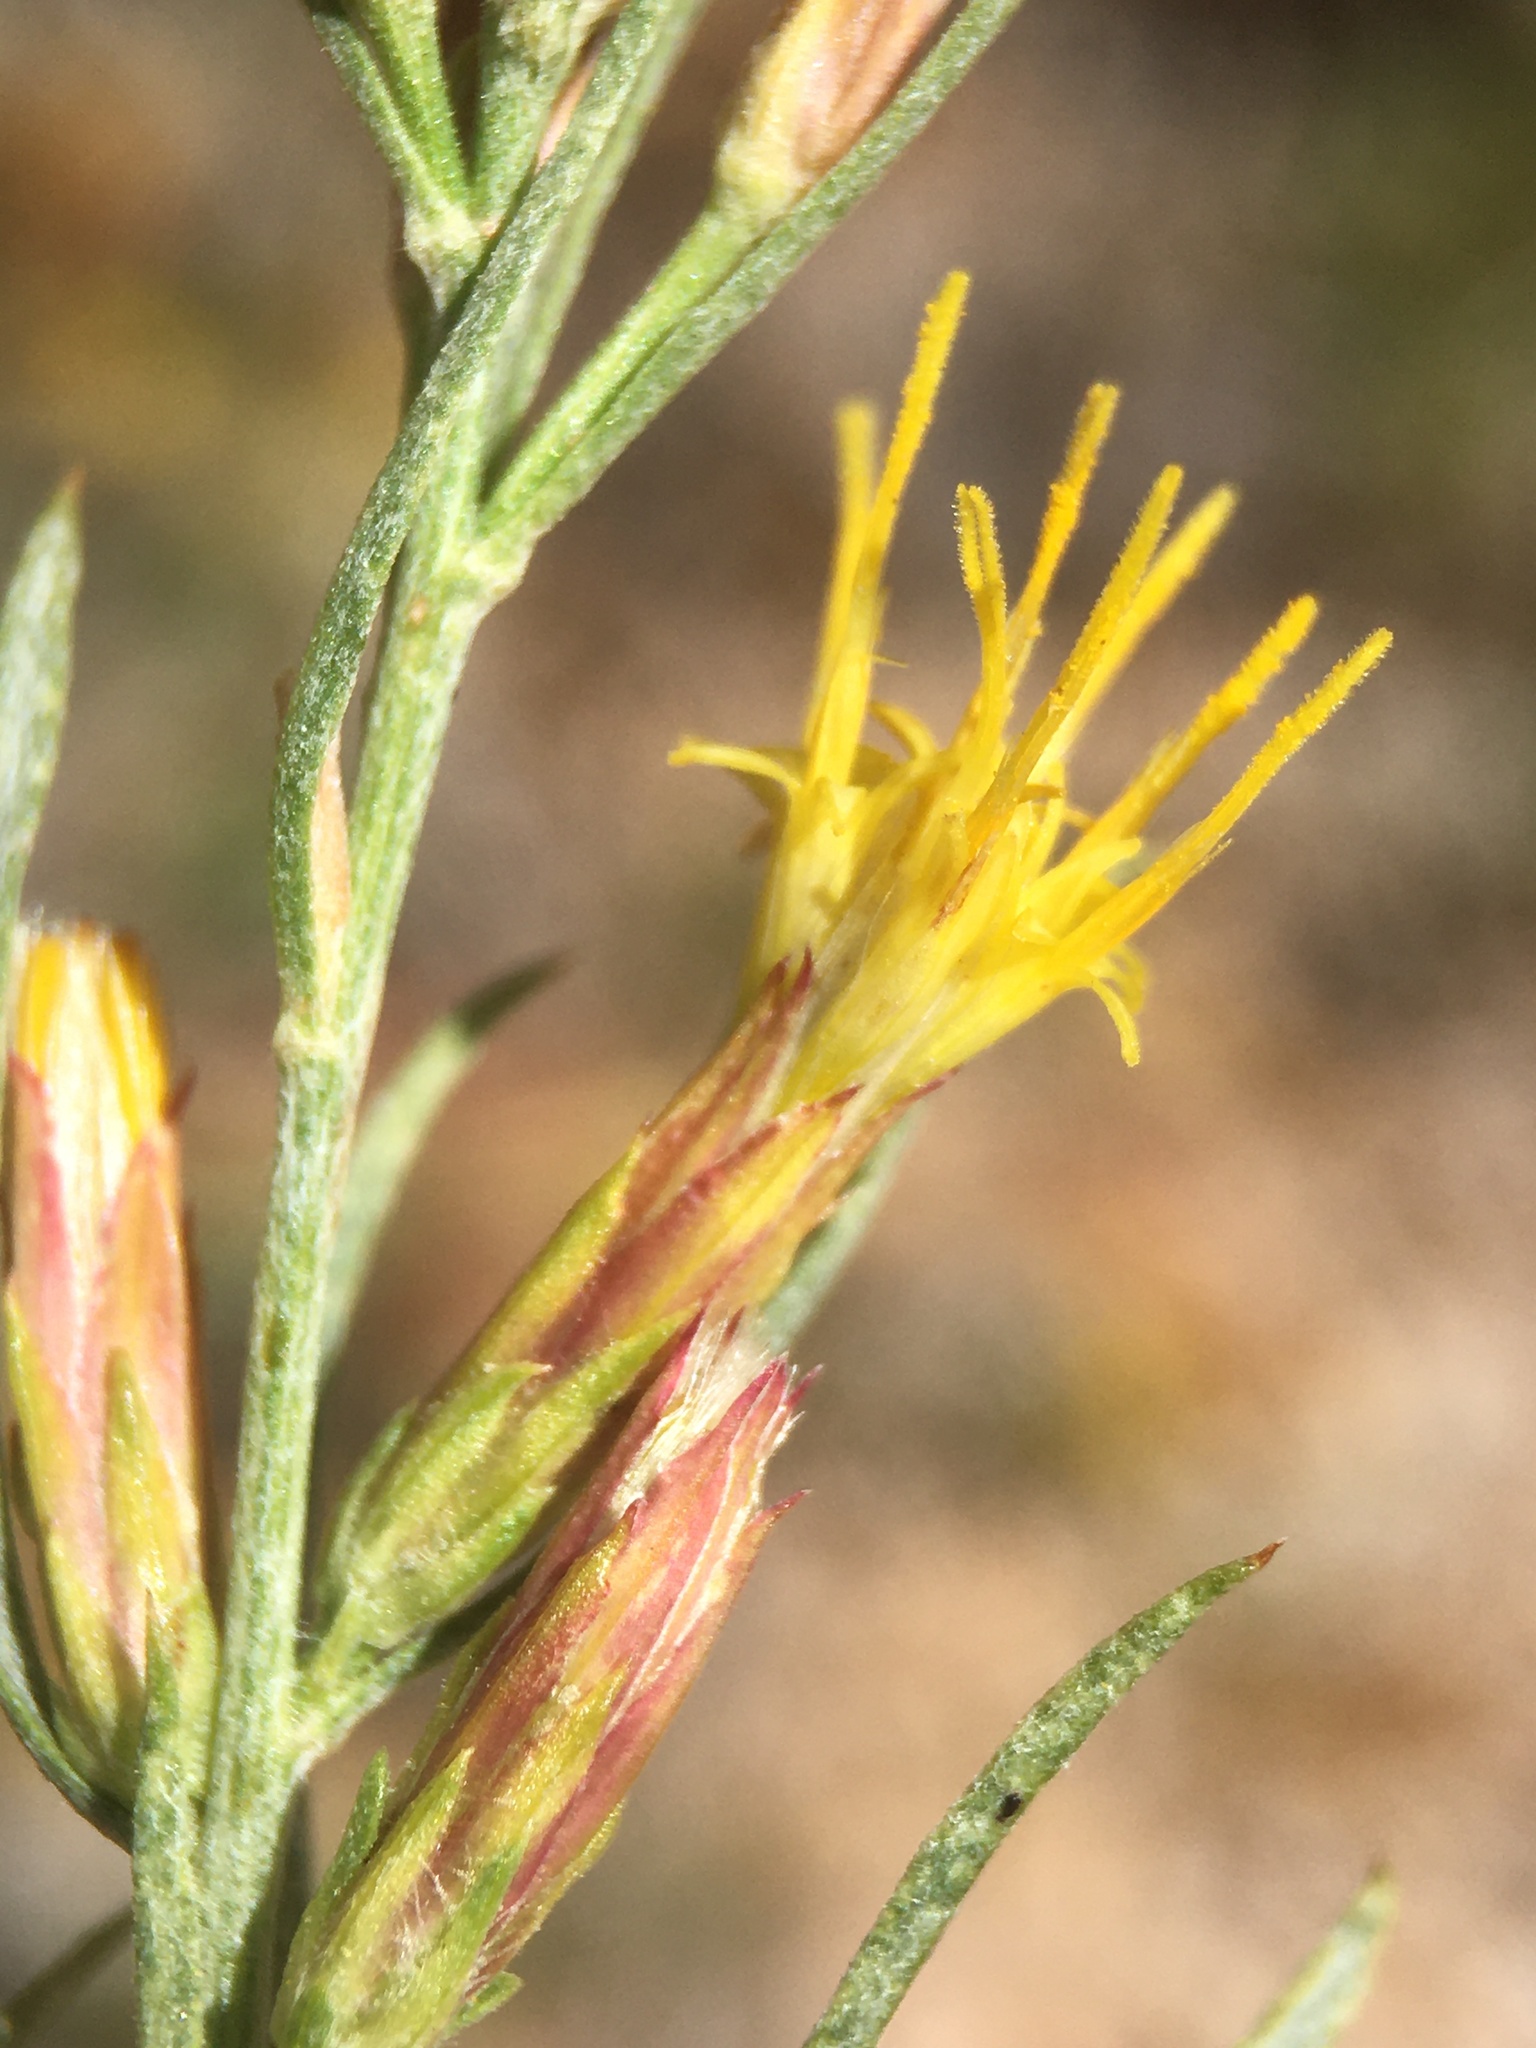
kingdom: Plantae
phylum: Tracheophyta
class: Magnoliopsida
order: Asterales
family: Asteraceae
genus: Ericameria
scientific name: Ericameria parryi
